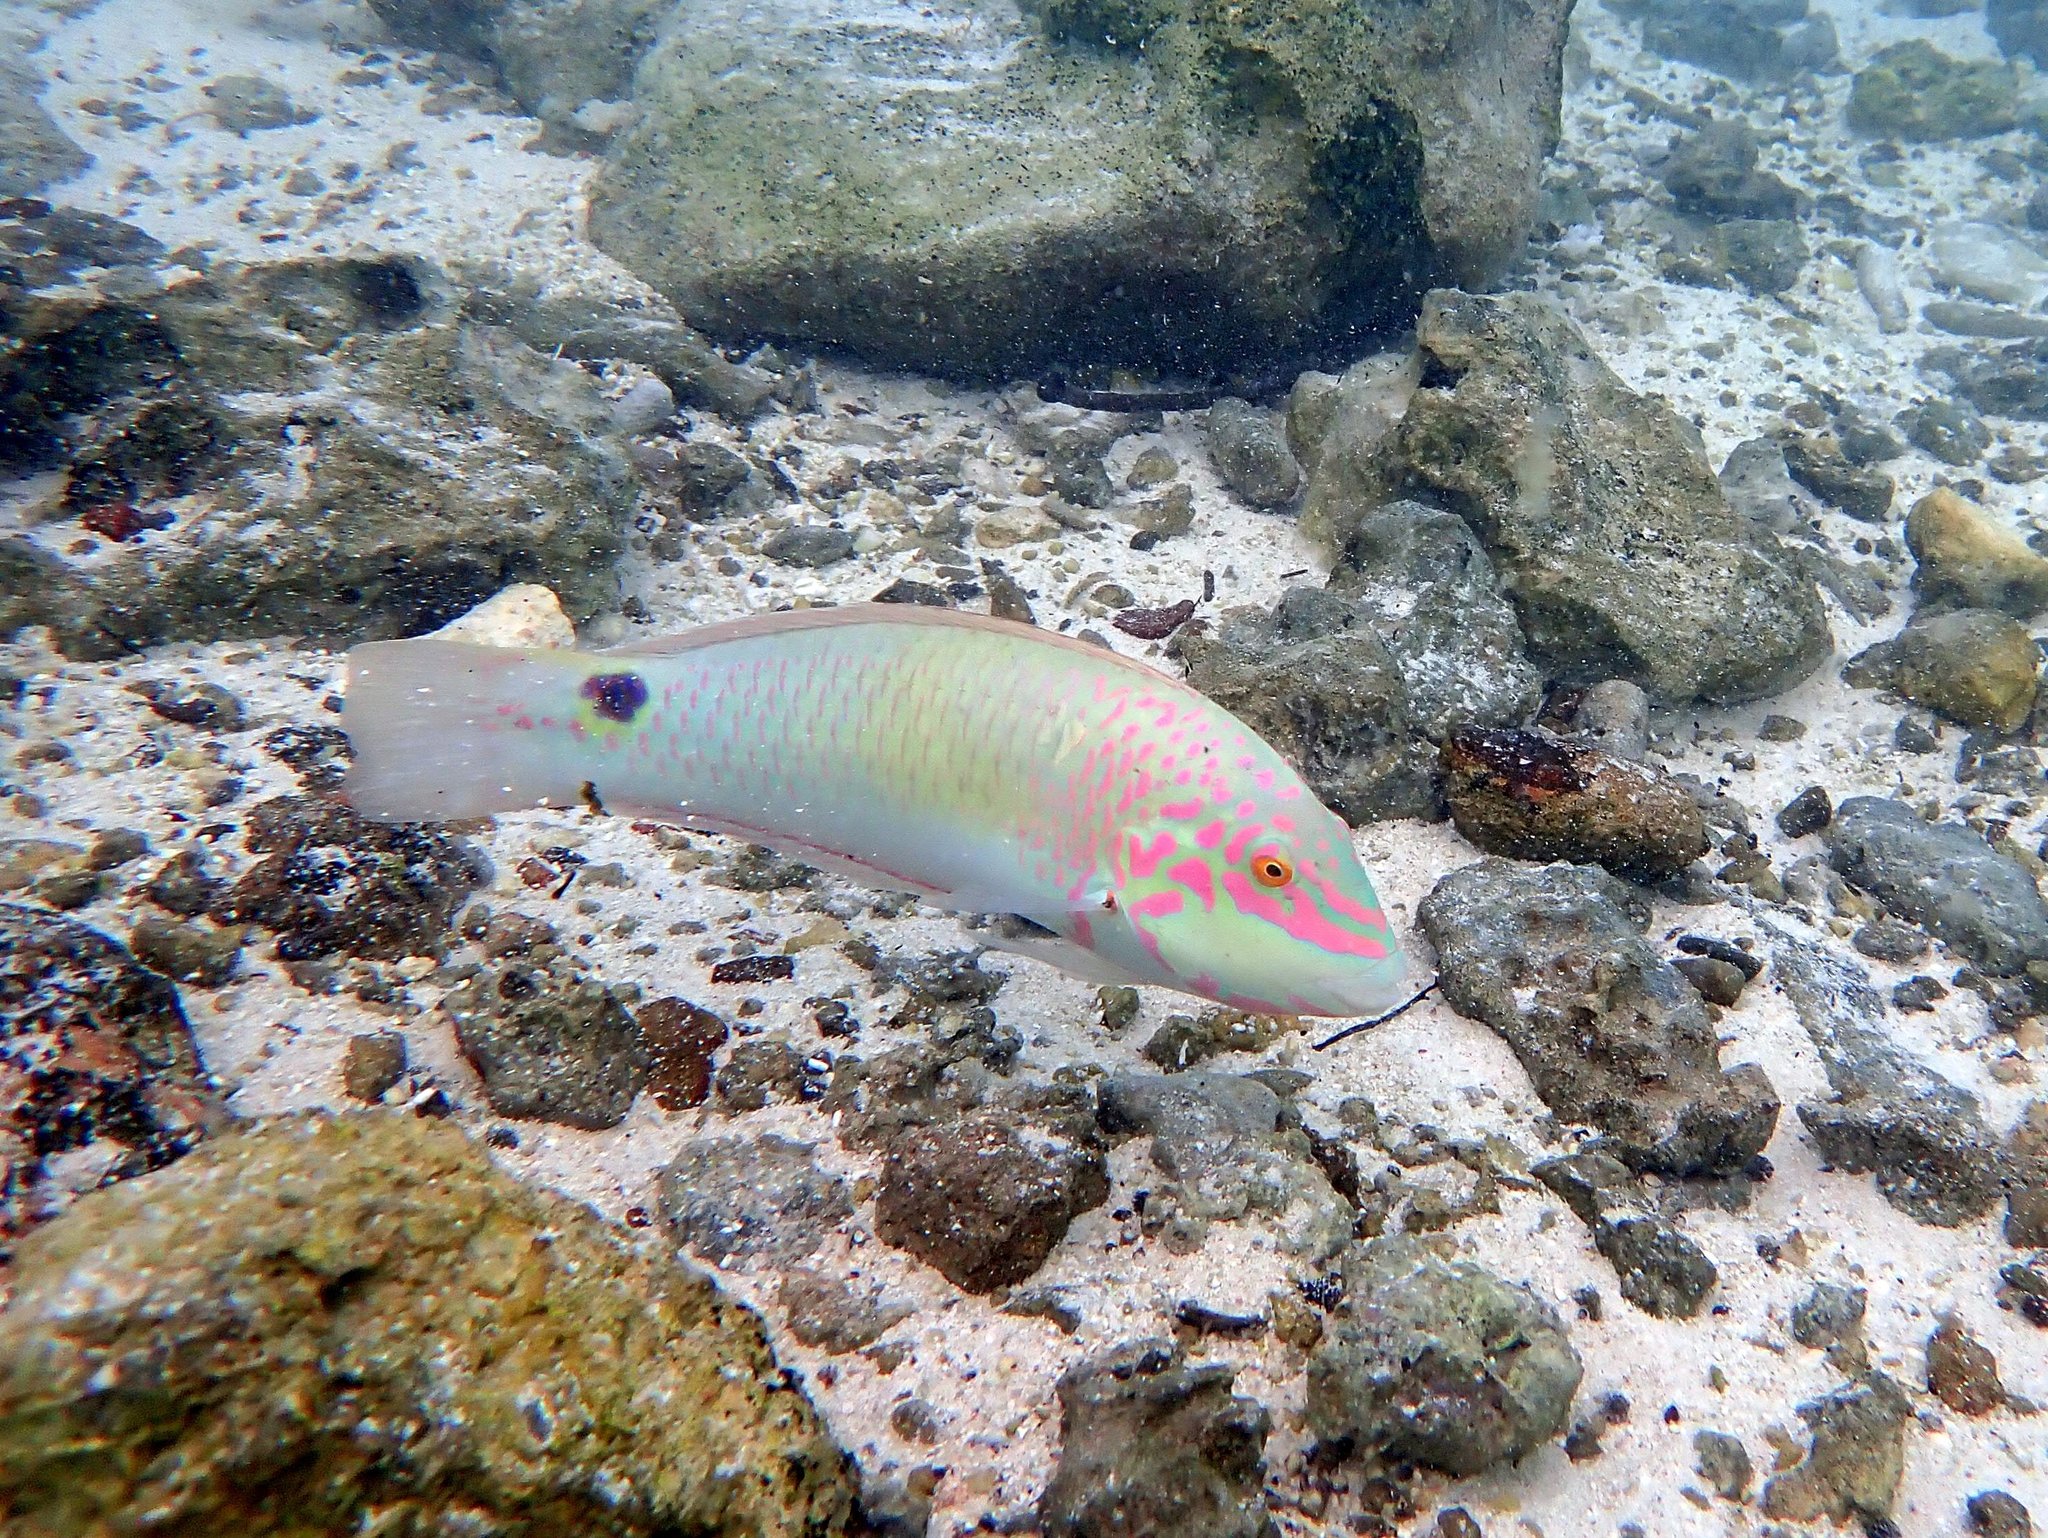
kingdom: Animalia
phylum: Chordata
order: Perciformes
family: Labridae
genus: Halichoeres
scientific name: Halichoeres trimaculatus
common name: Three-spot wrasse
